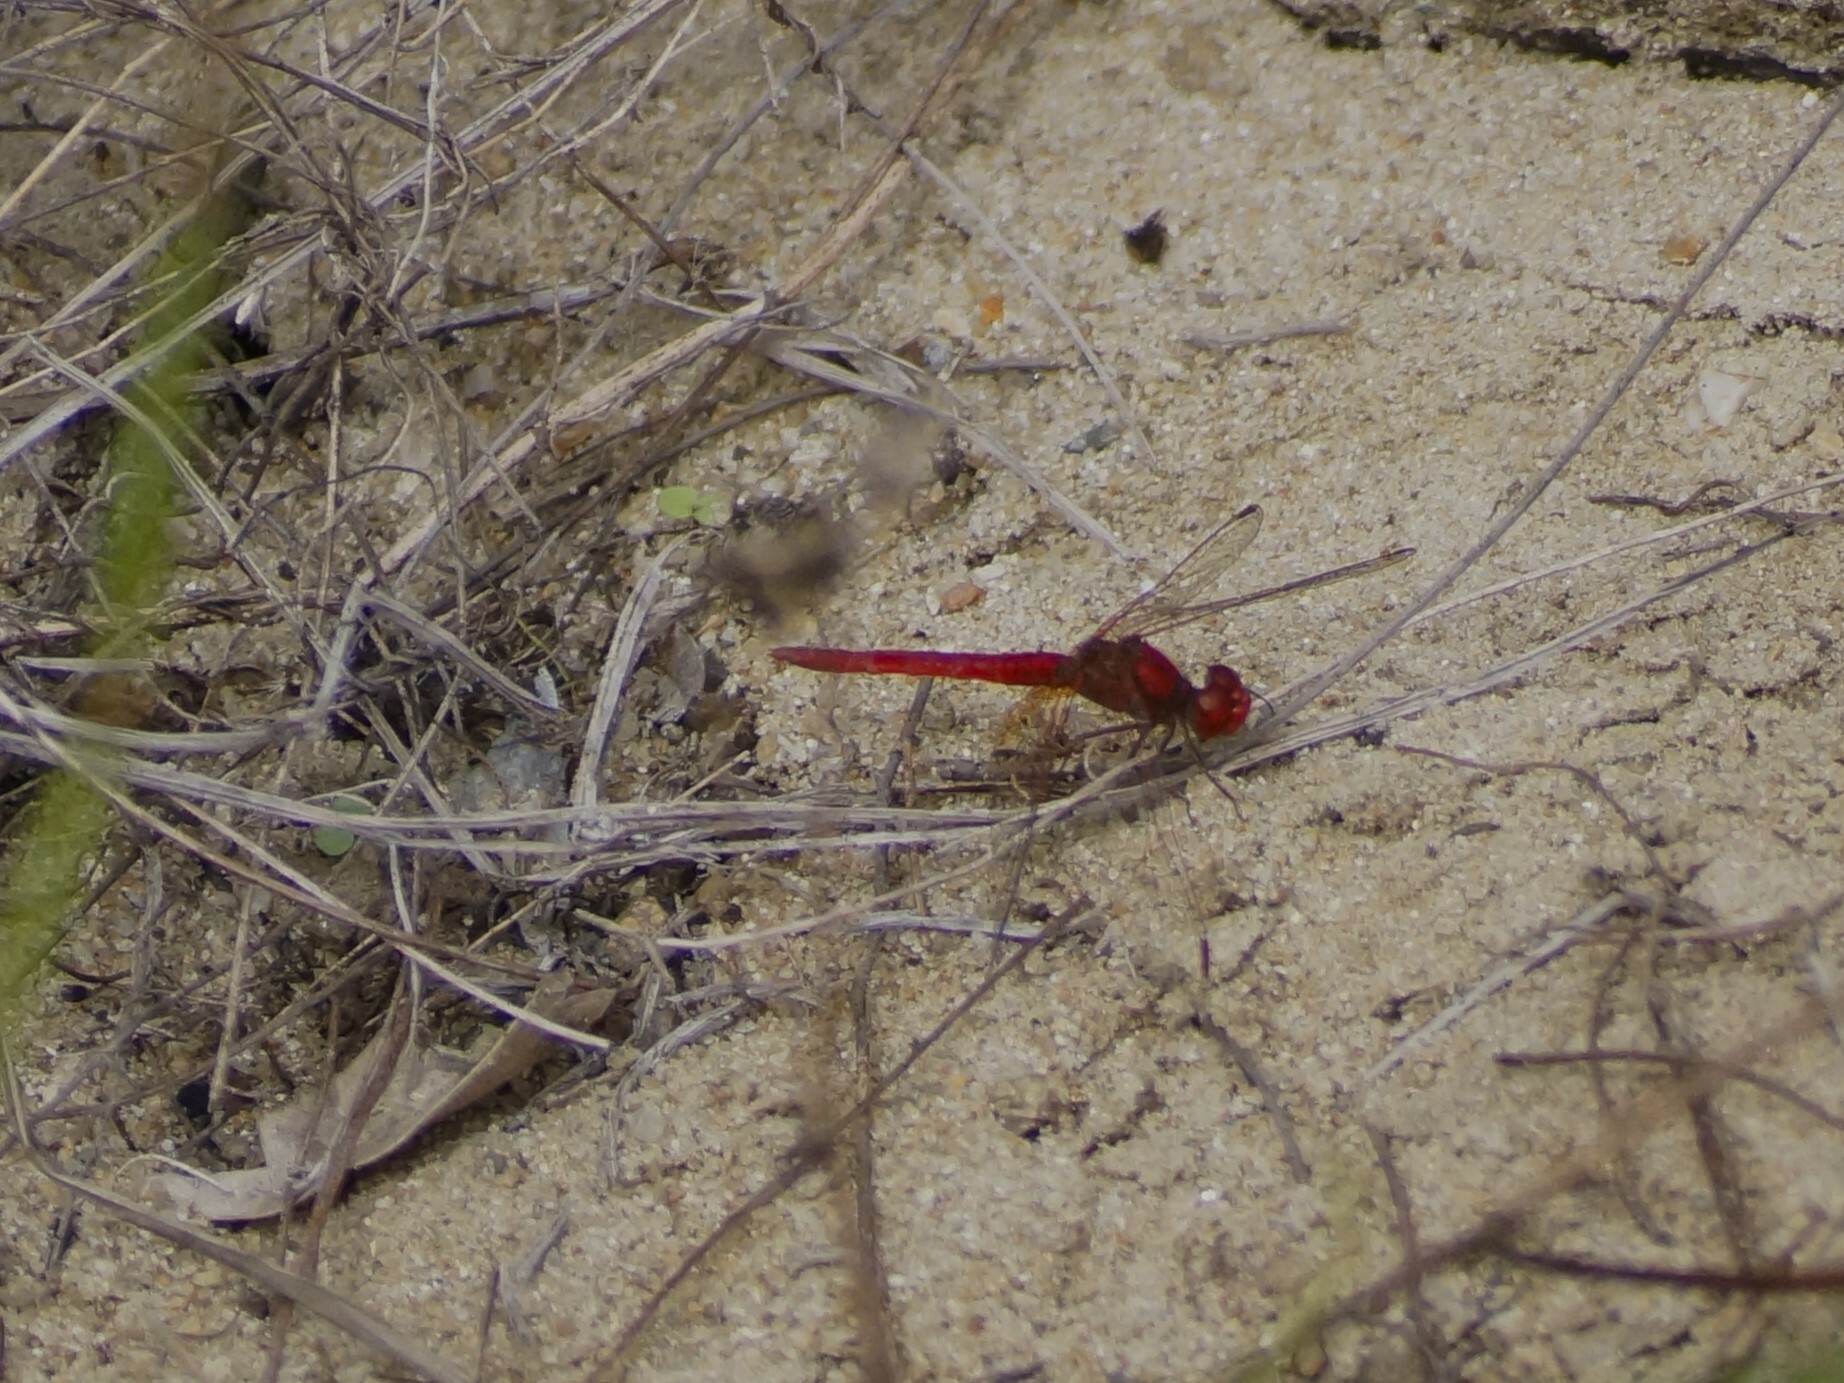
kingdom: Animalia
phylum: Arthropoda
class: Insecta
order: Odonata
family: Libellulidae
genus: Diplacodes
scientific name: Diplacodes haematodes
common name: Scarlet percher
